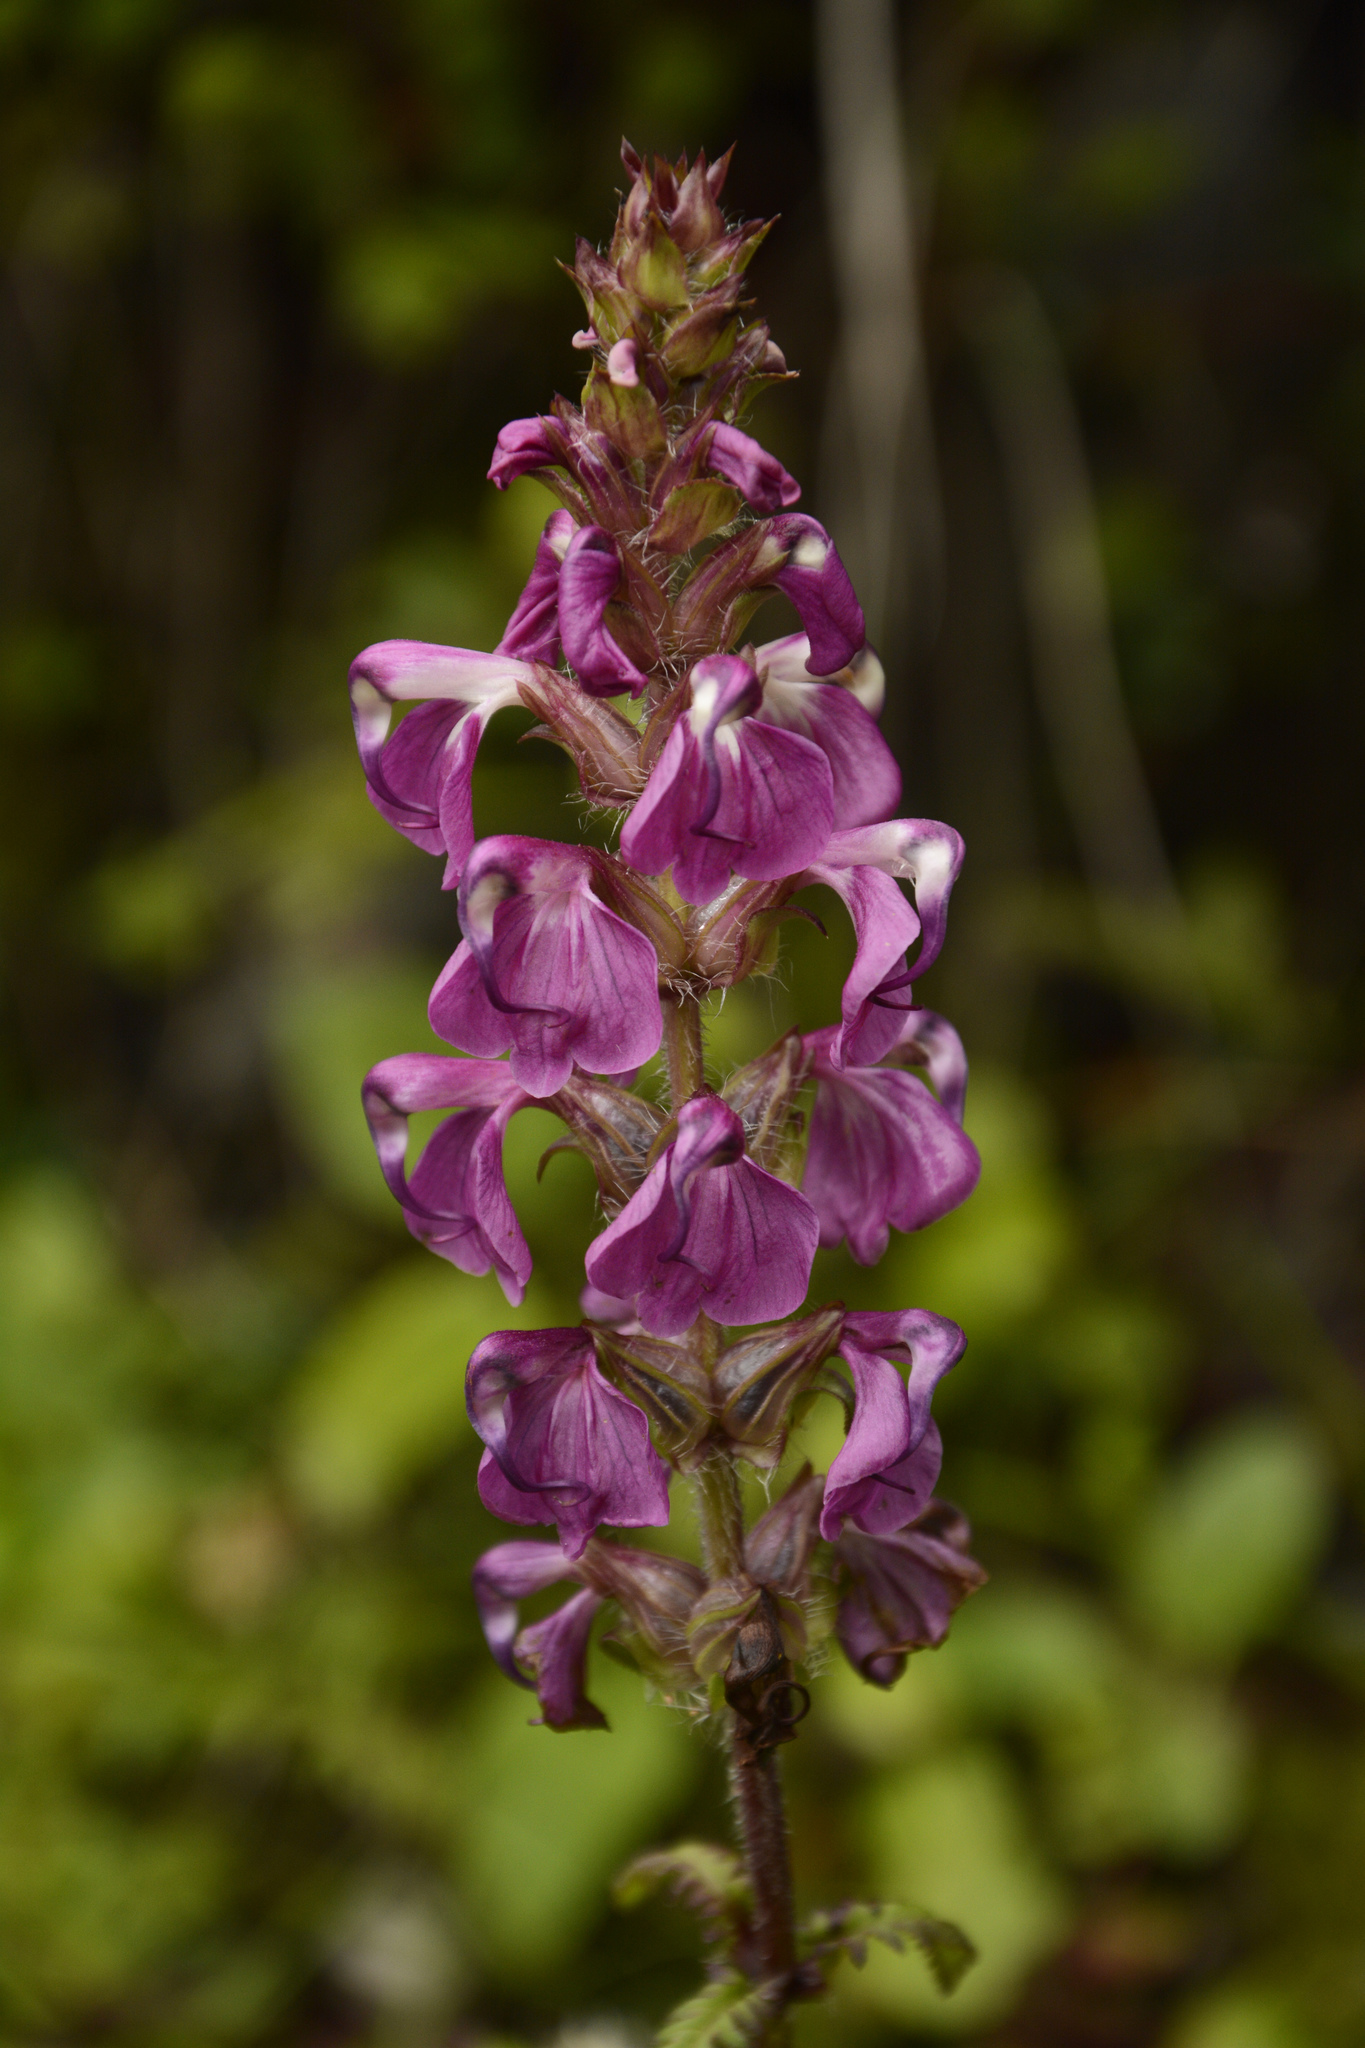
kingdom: Plantae
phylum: Tracheophyta
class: Magnoliopsida
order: Lamiales
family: Orobanchaceae
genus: Pedicularis
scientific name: Pedicularis pectinata
